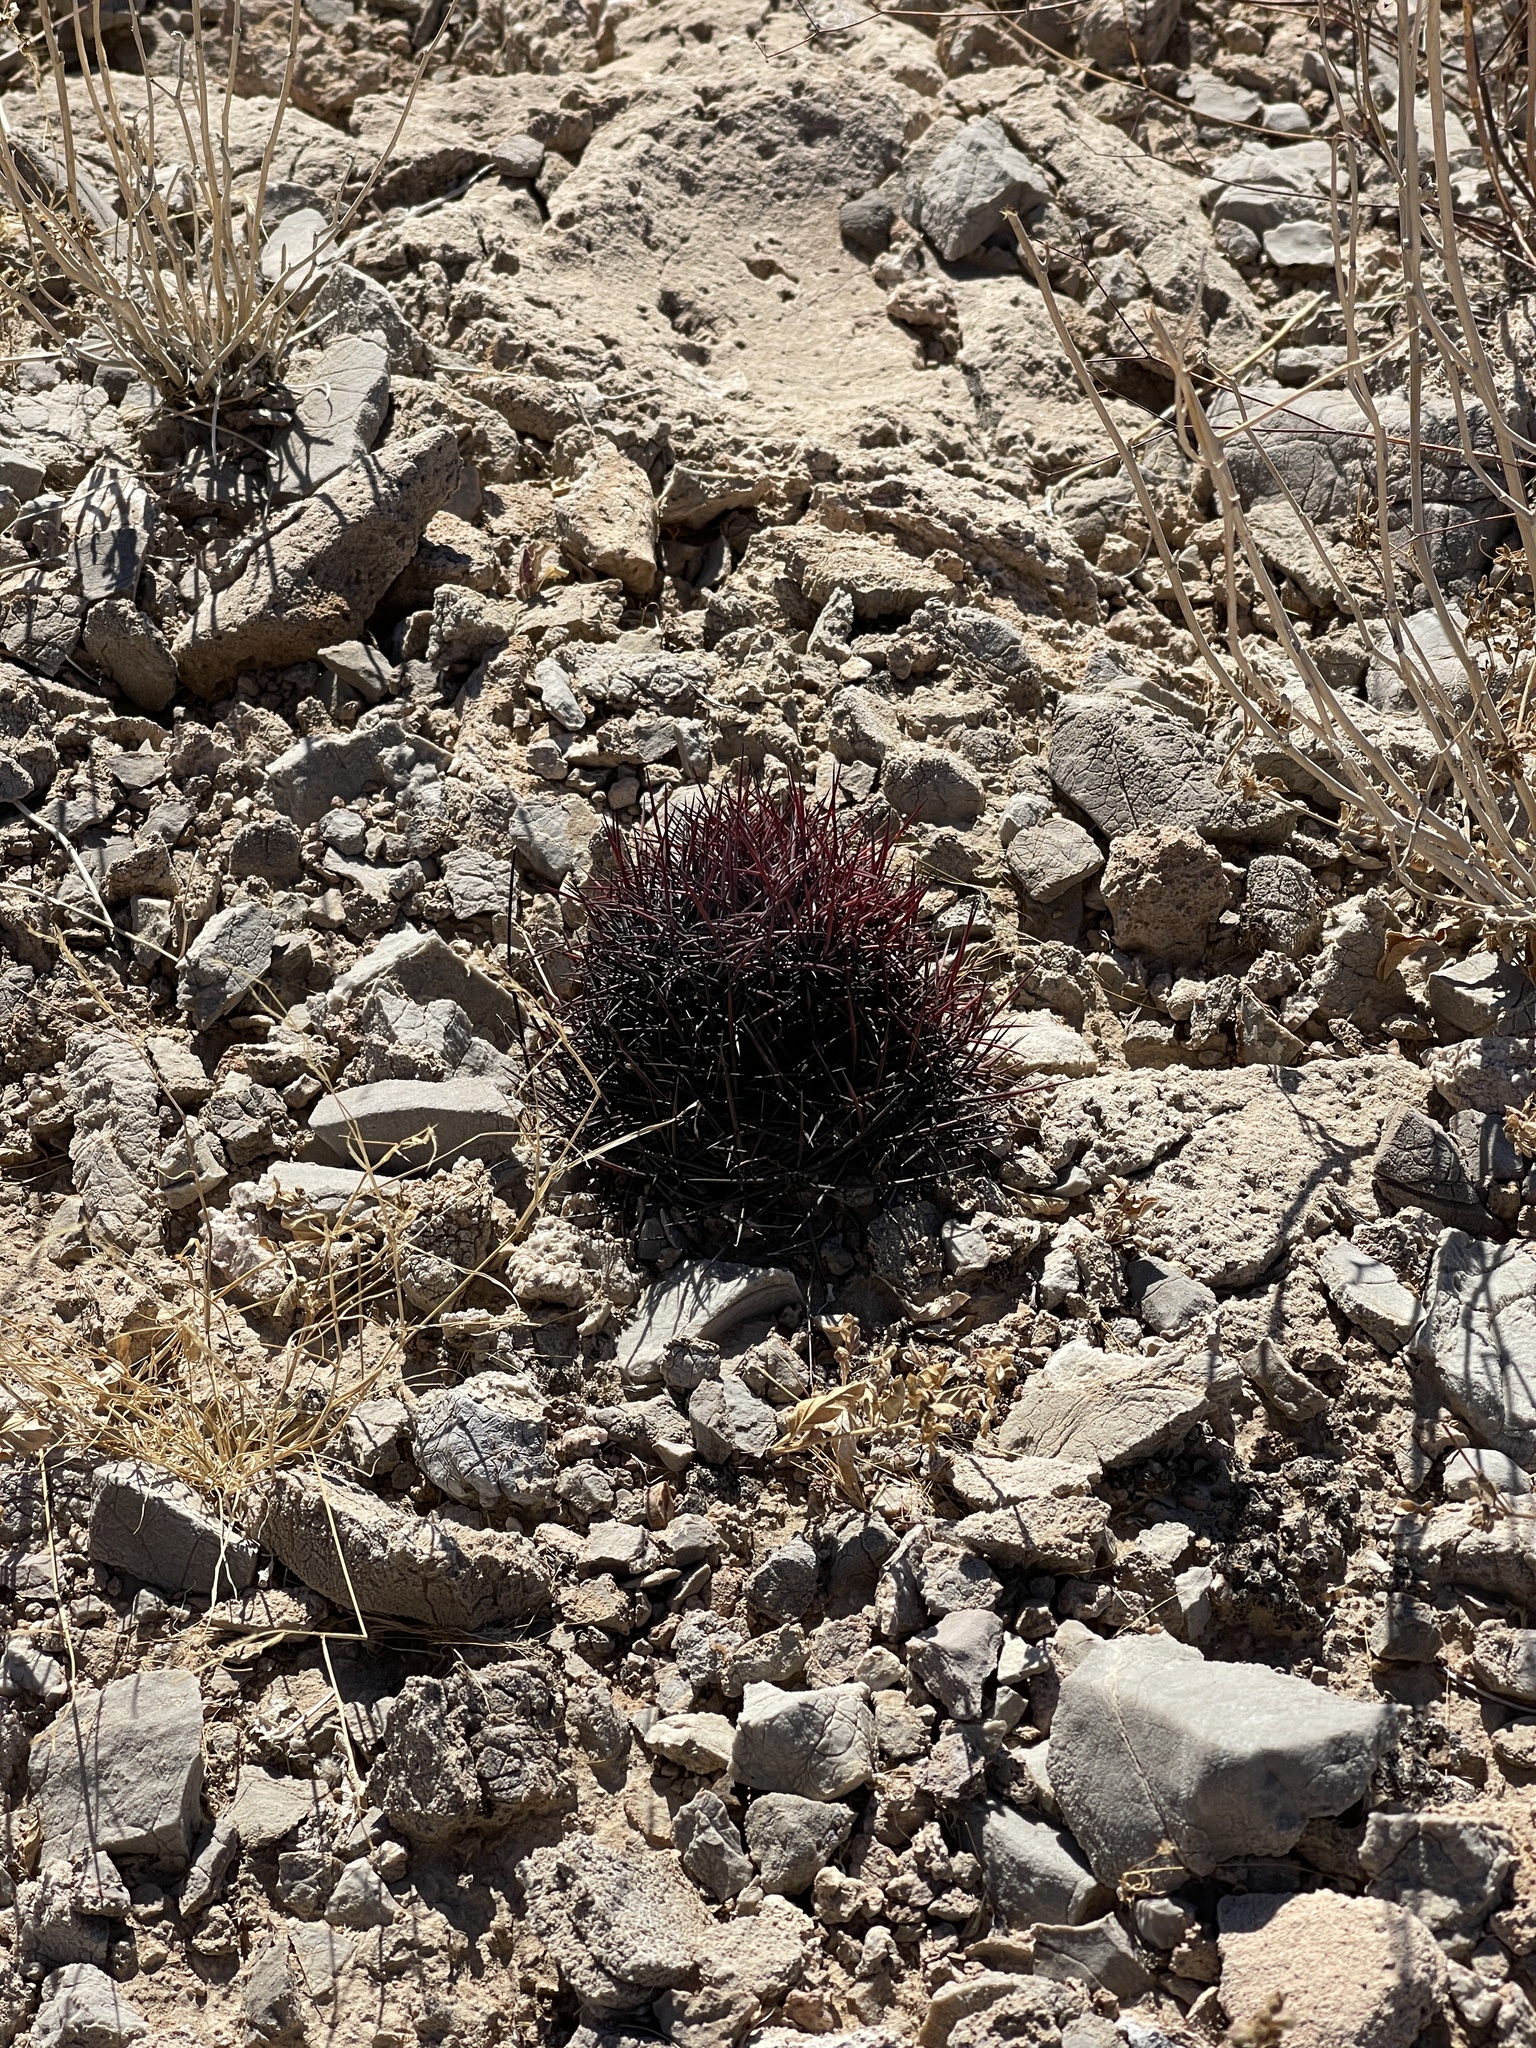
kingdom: Plantae
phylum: Tracheophyta
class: Magnoliopsida
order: Caryophyllales
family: Cactaceae
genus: Sclerocactus
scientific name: Sclerocactus johnsonii
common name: Eight-spine fishhook cactus
